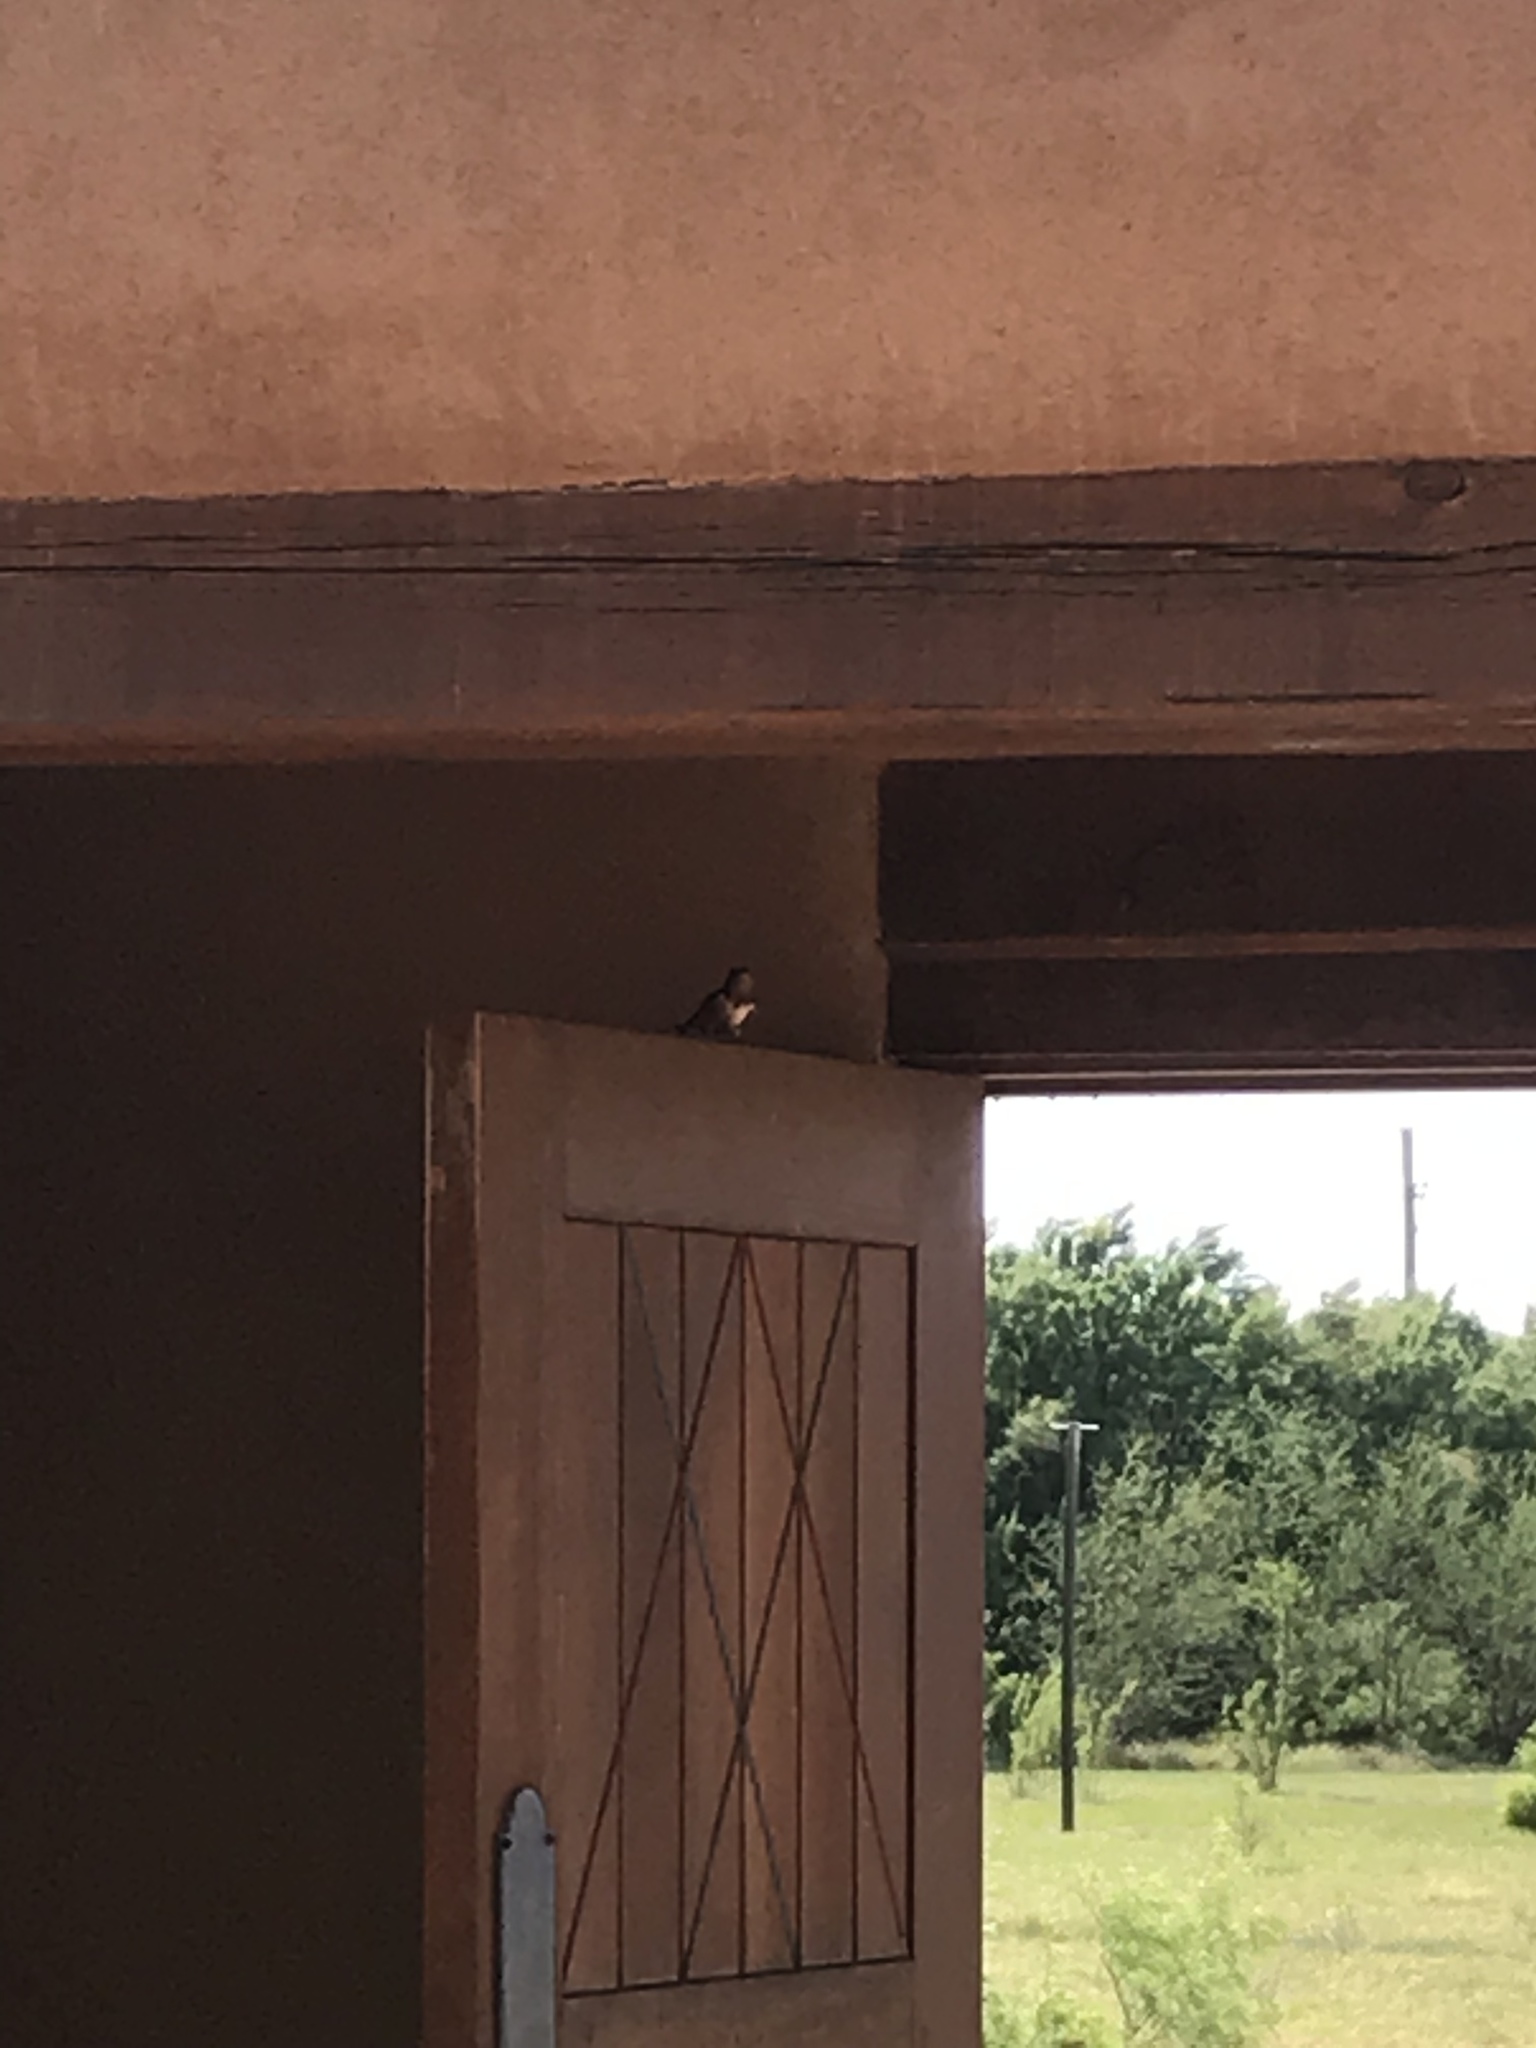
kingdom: Animalia
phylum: Chordata
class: Aves
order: Passeriformes
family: Hirundinidae
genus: Hirundo
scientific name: Hirundo rustica
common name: Barn swallow
